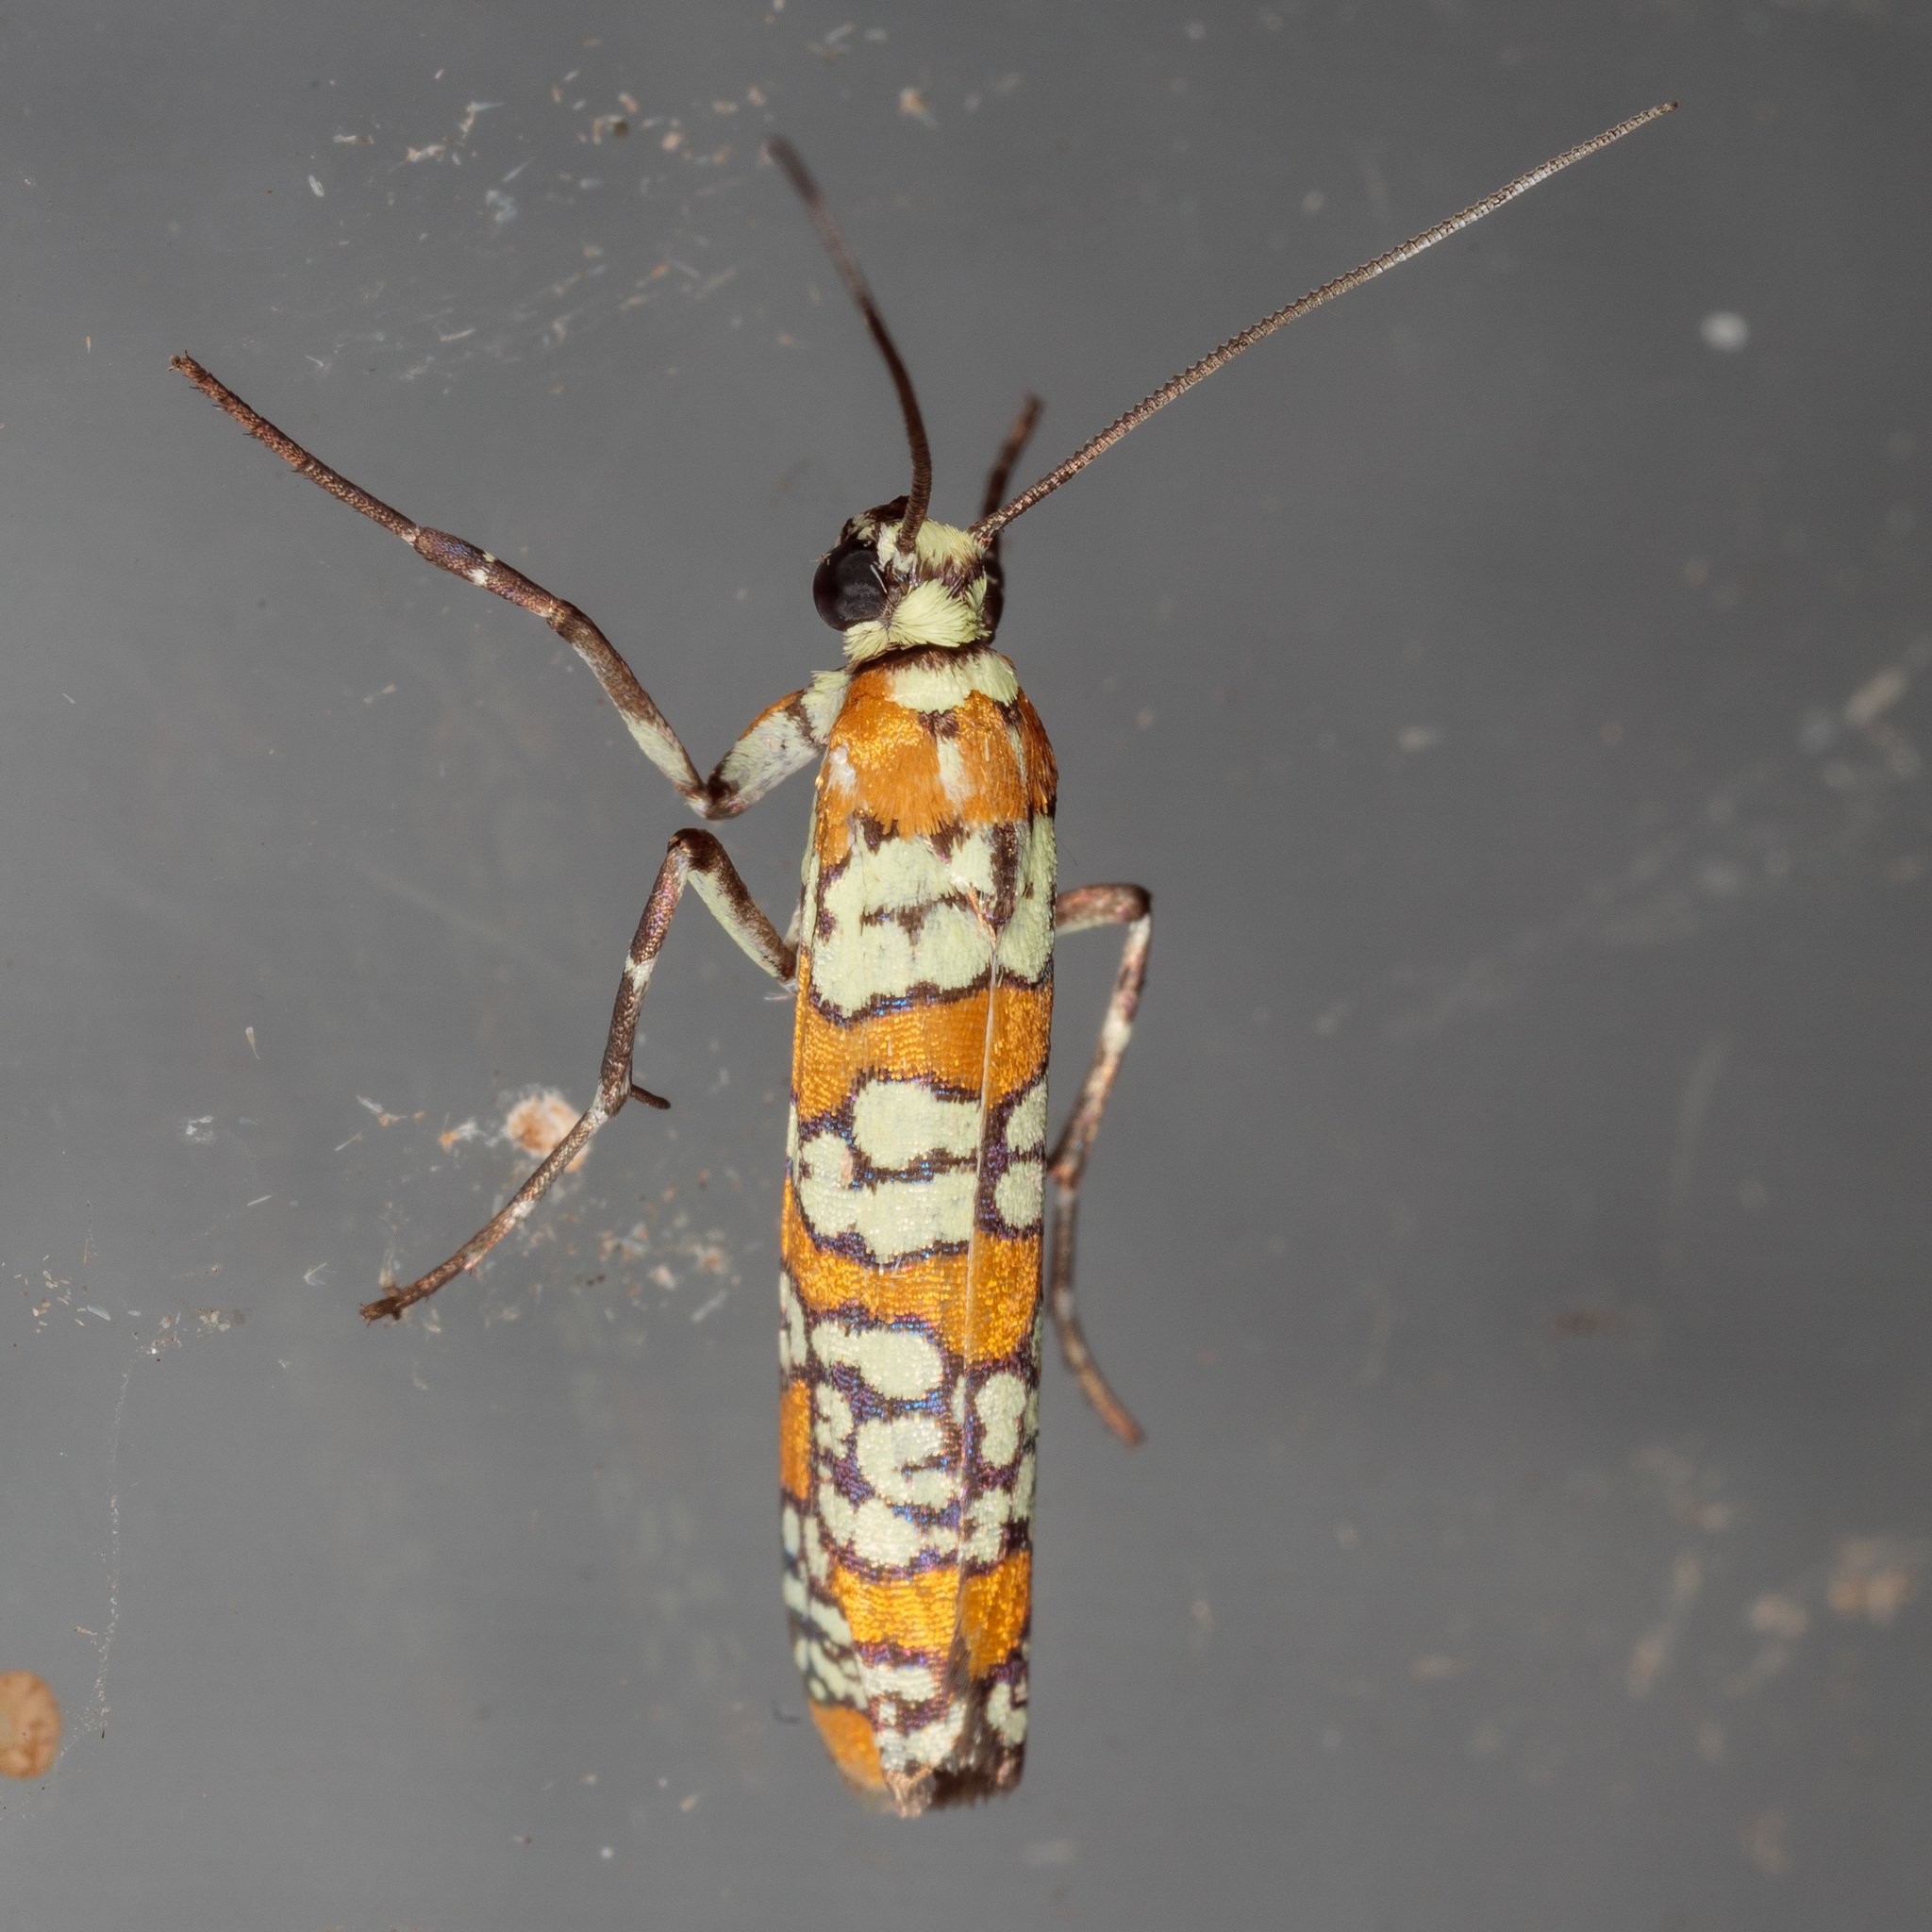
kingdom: Animalia
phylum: Arthropoda
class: Insecta
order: Lepidoptera
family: Attevidae
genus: Atteva
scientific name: Atteva punctella
